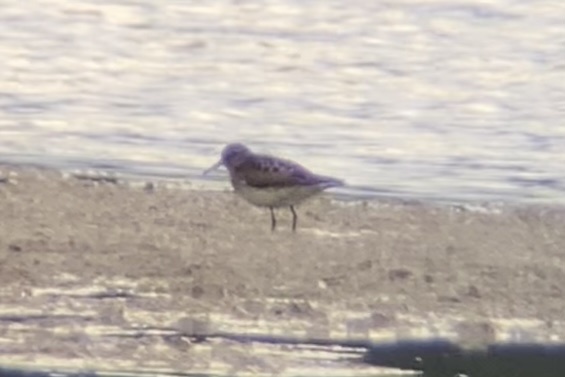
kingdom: Animalia
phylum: Chordata
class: Aves
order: Charadriiformes
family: Scolopacidae
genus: Calidris
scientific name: Calidris minutilla
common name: Least sandpiper
